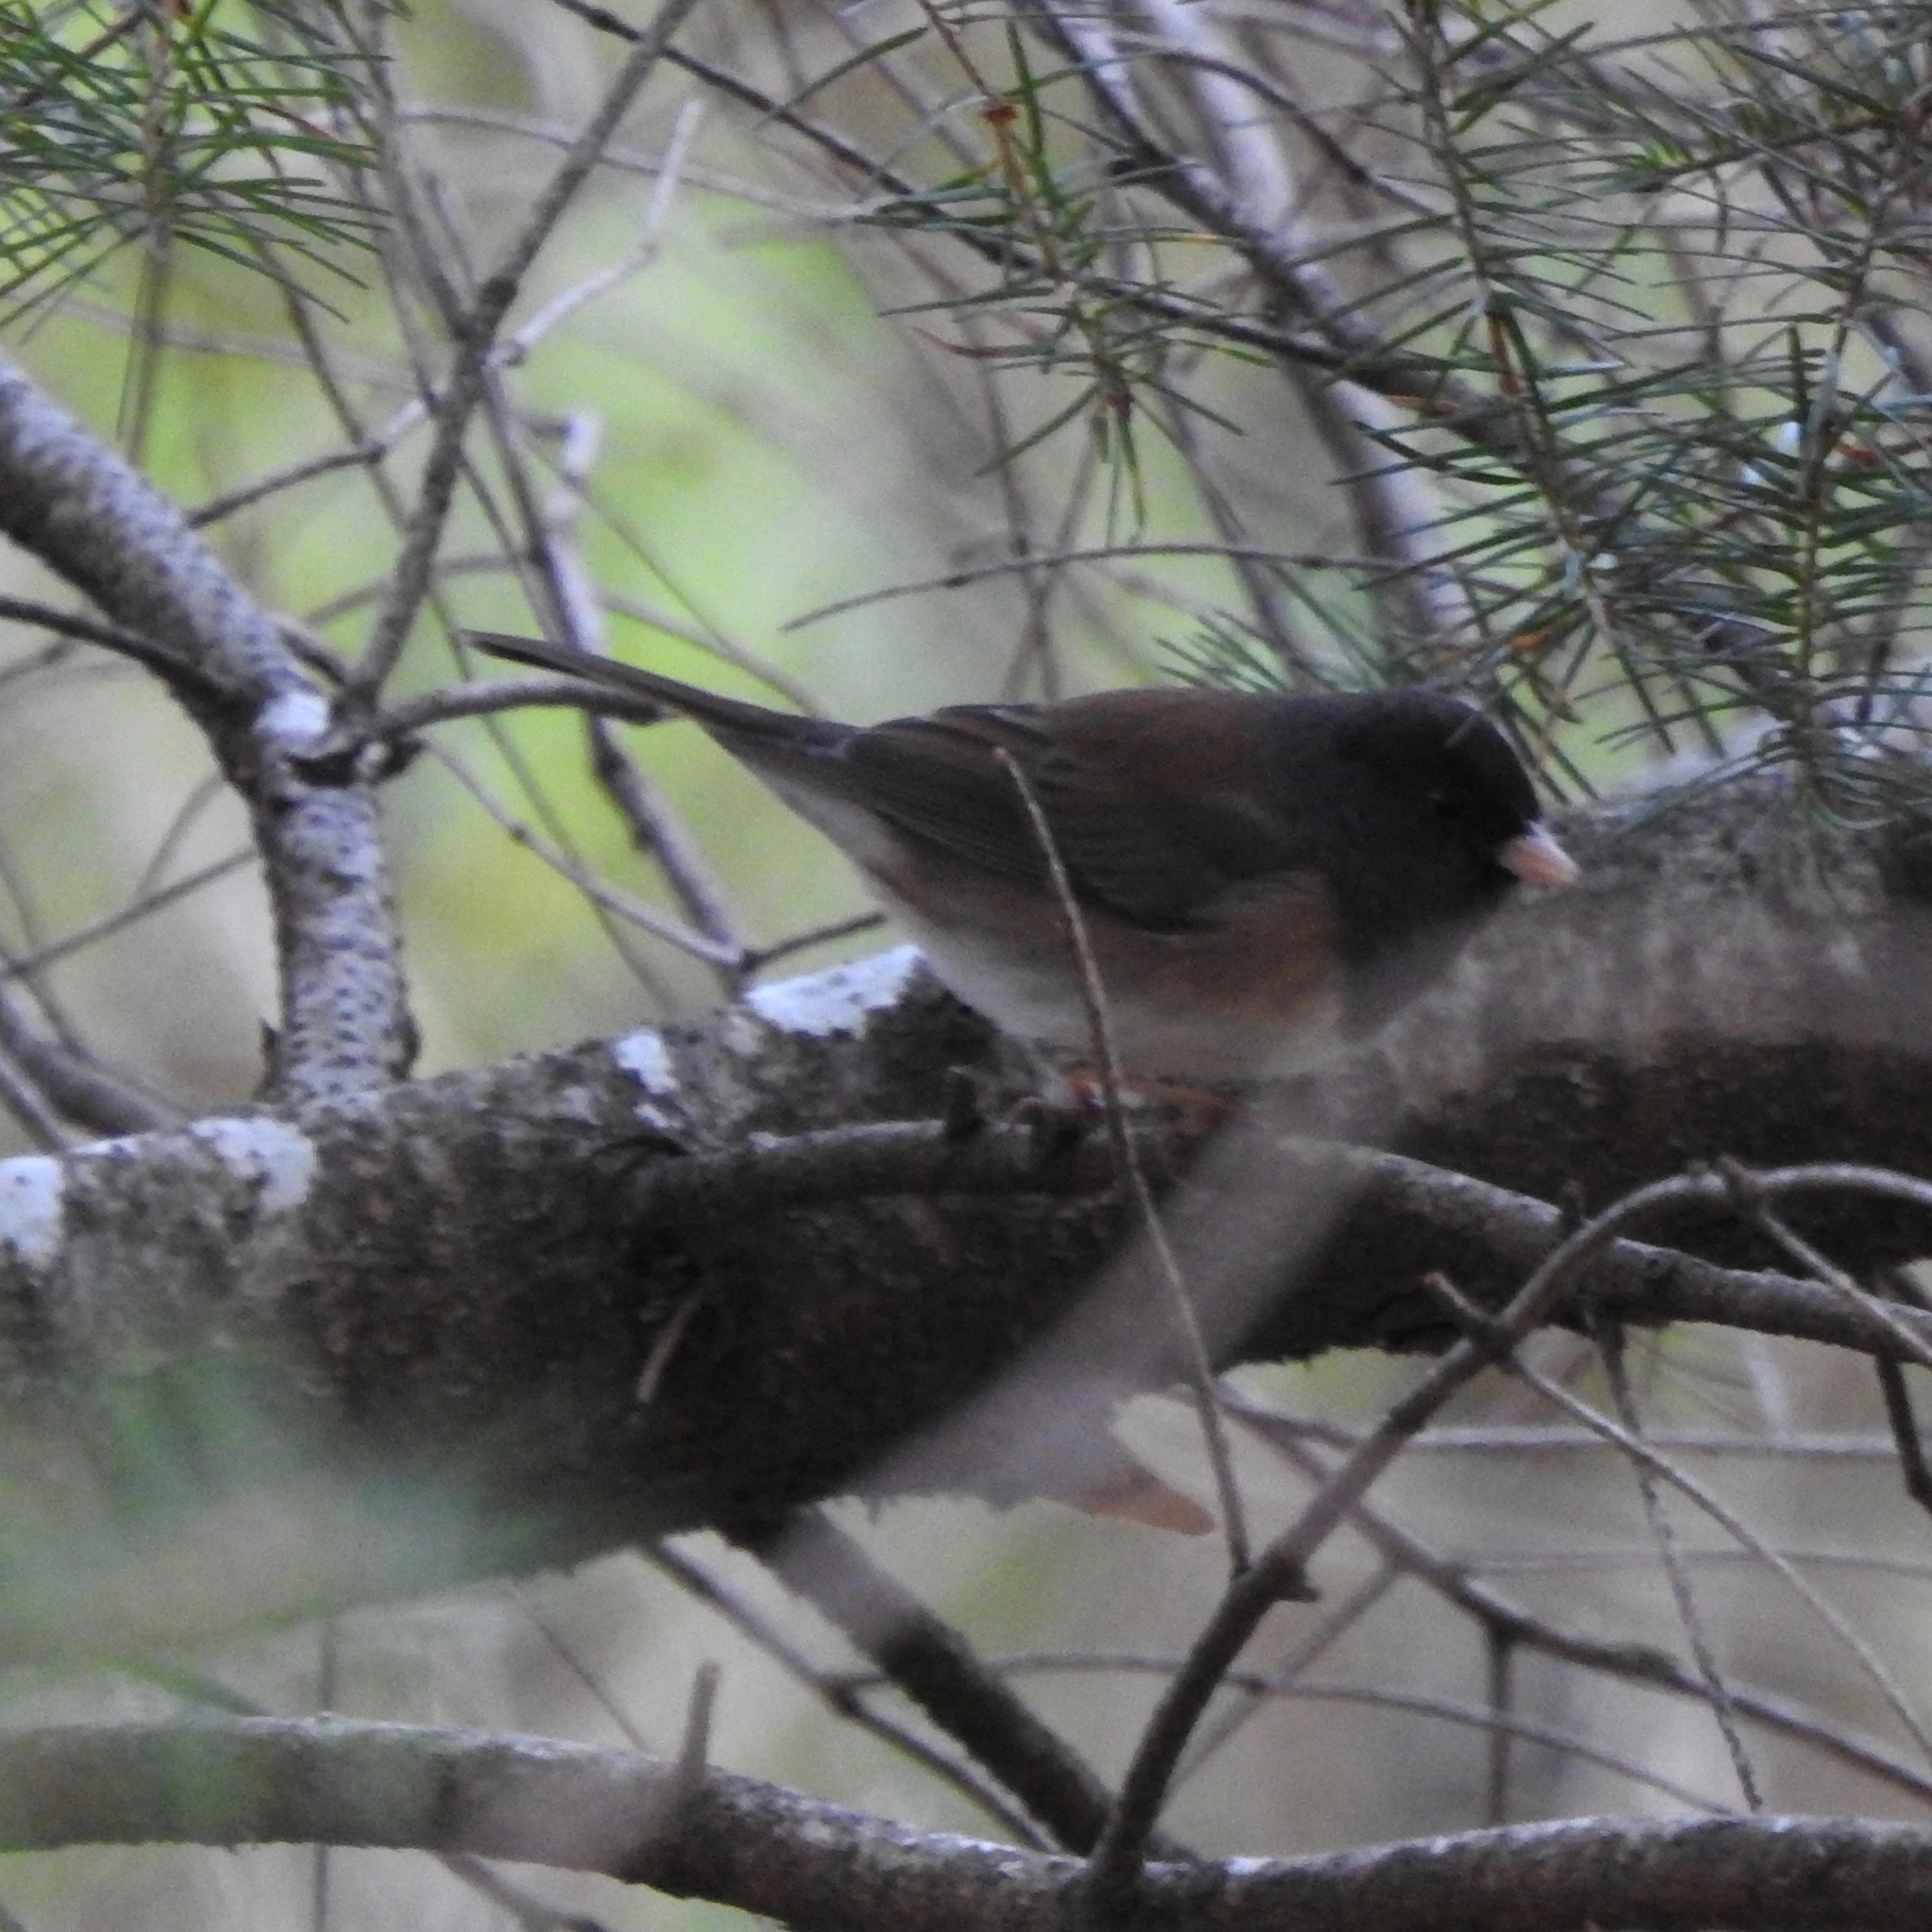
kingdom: Animalia
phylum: Chordata
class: Aves
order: Passeriformes
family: Passerellidae
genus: Junco
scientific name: Junco hyemalis
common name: Dark-eyed junco
